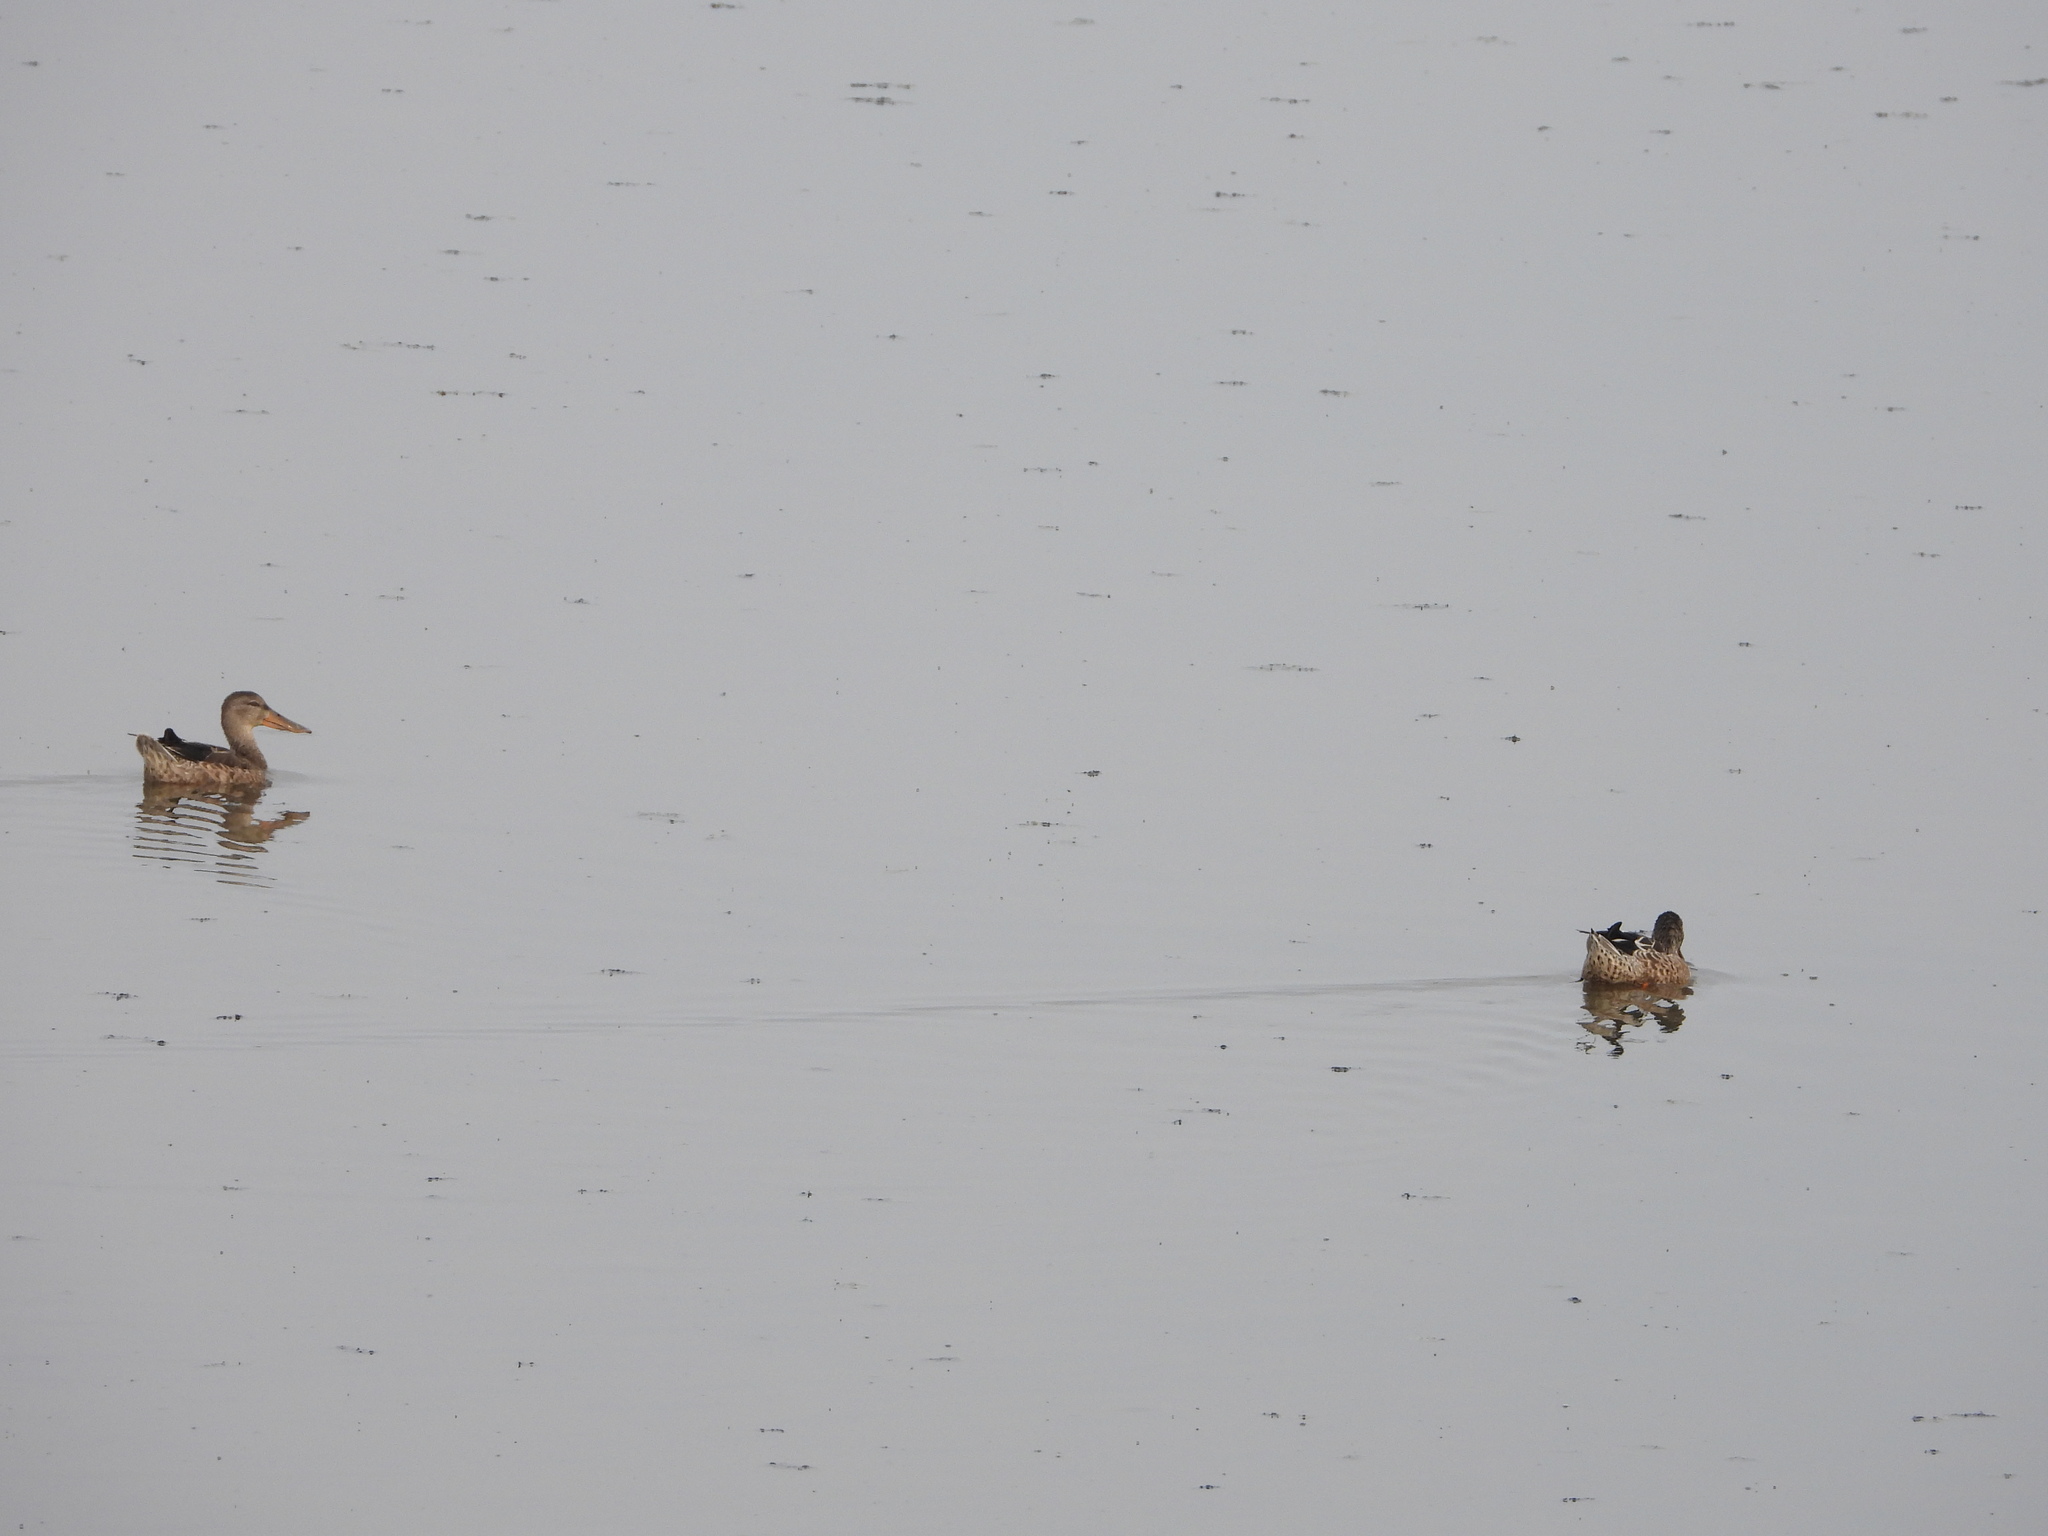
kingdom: Animalia
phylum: Chordata
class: Aves
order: Anseriformes
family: Anatidae
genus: Spatula
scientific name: Spatula clypeata
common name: Northern shoveler
